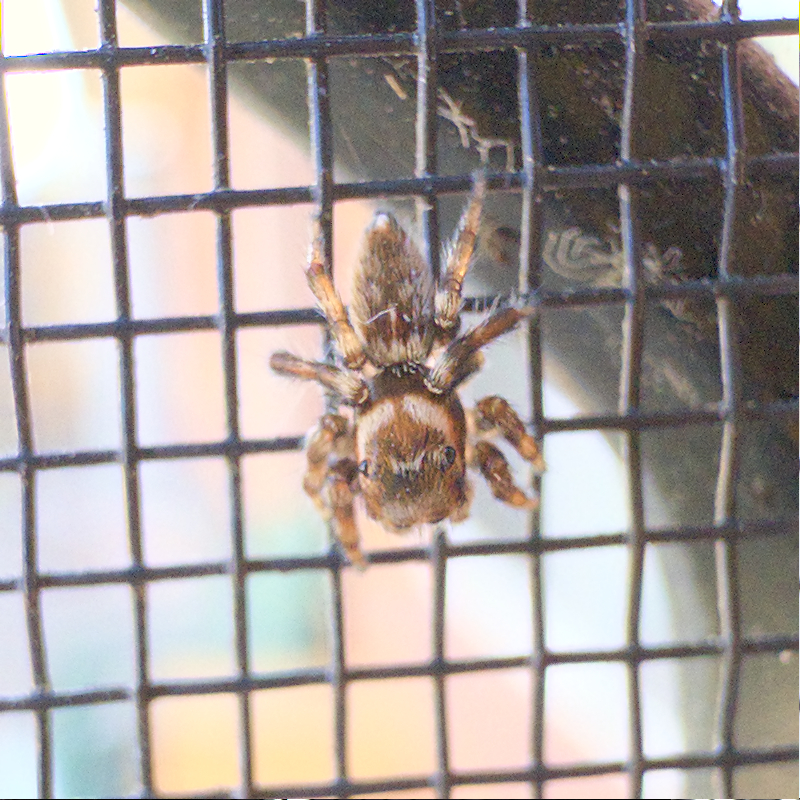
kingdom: Animalia
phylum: Arthropoda
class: Arachnida
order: Araneae
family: Salticidae
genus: Maratus
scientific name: Maratus griseus
